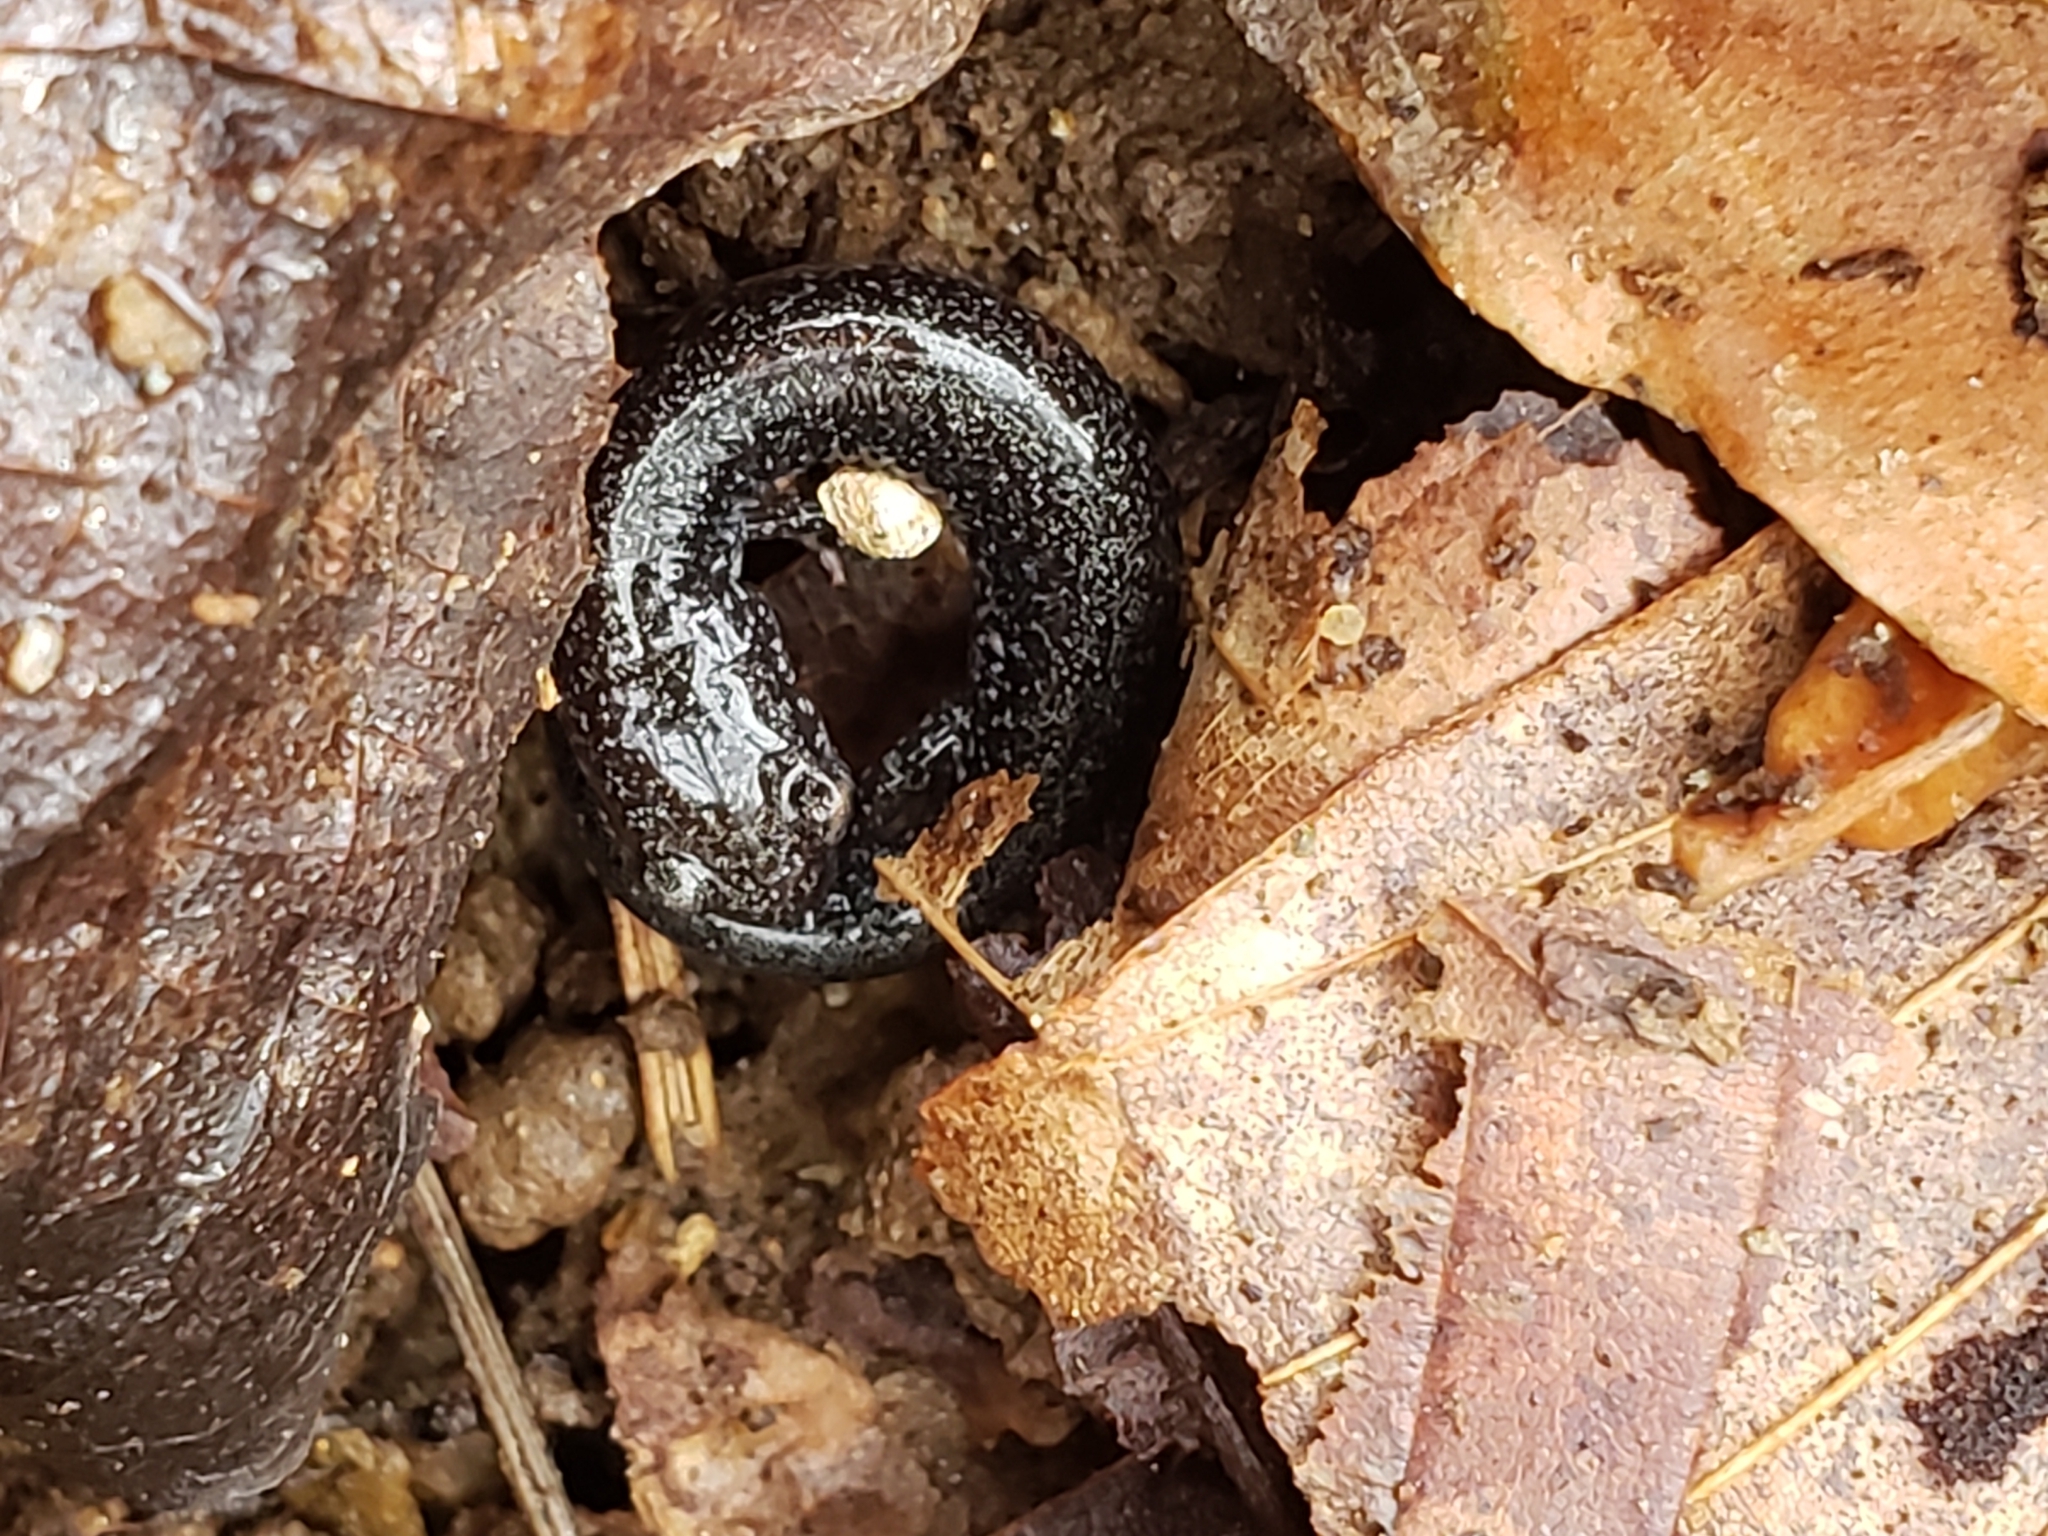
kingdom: Animalia
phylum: Chordata
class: Amphibia
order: Caudata
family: Plethodontidae
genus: Plethodon
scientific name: Plethodon cinereus
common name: Redback salamander
